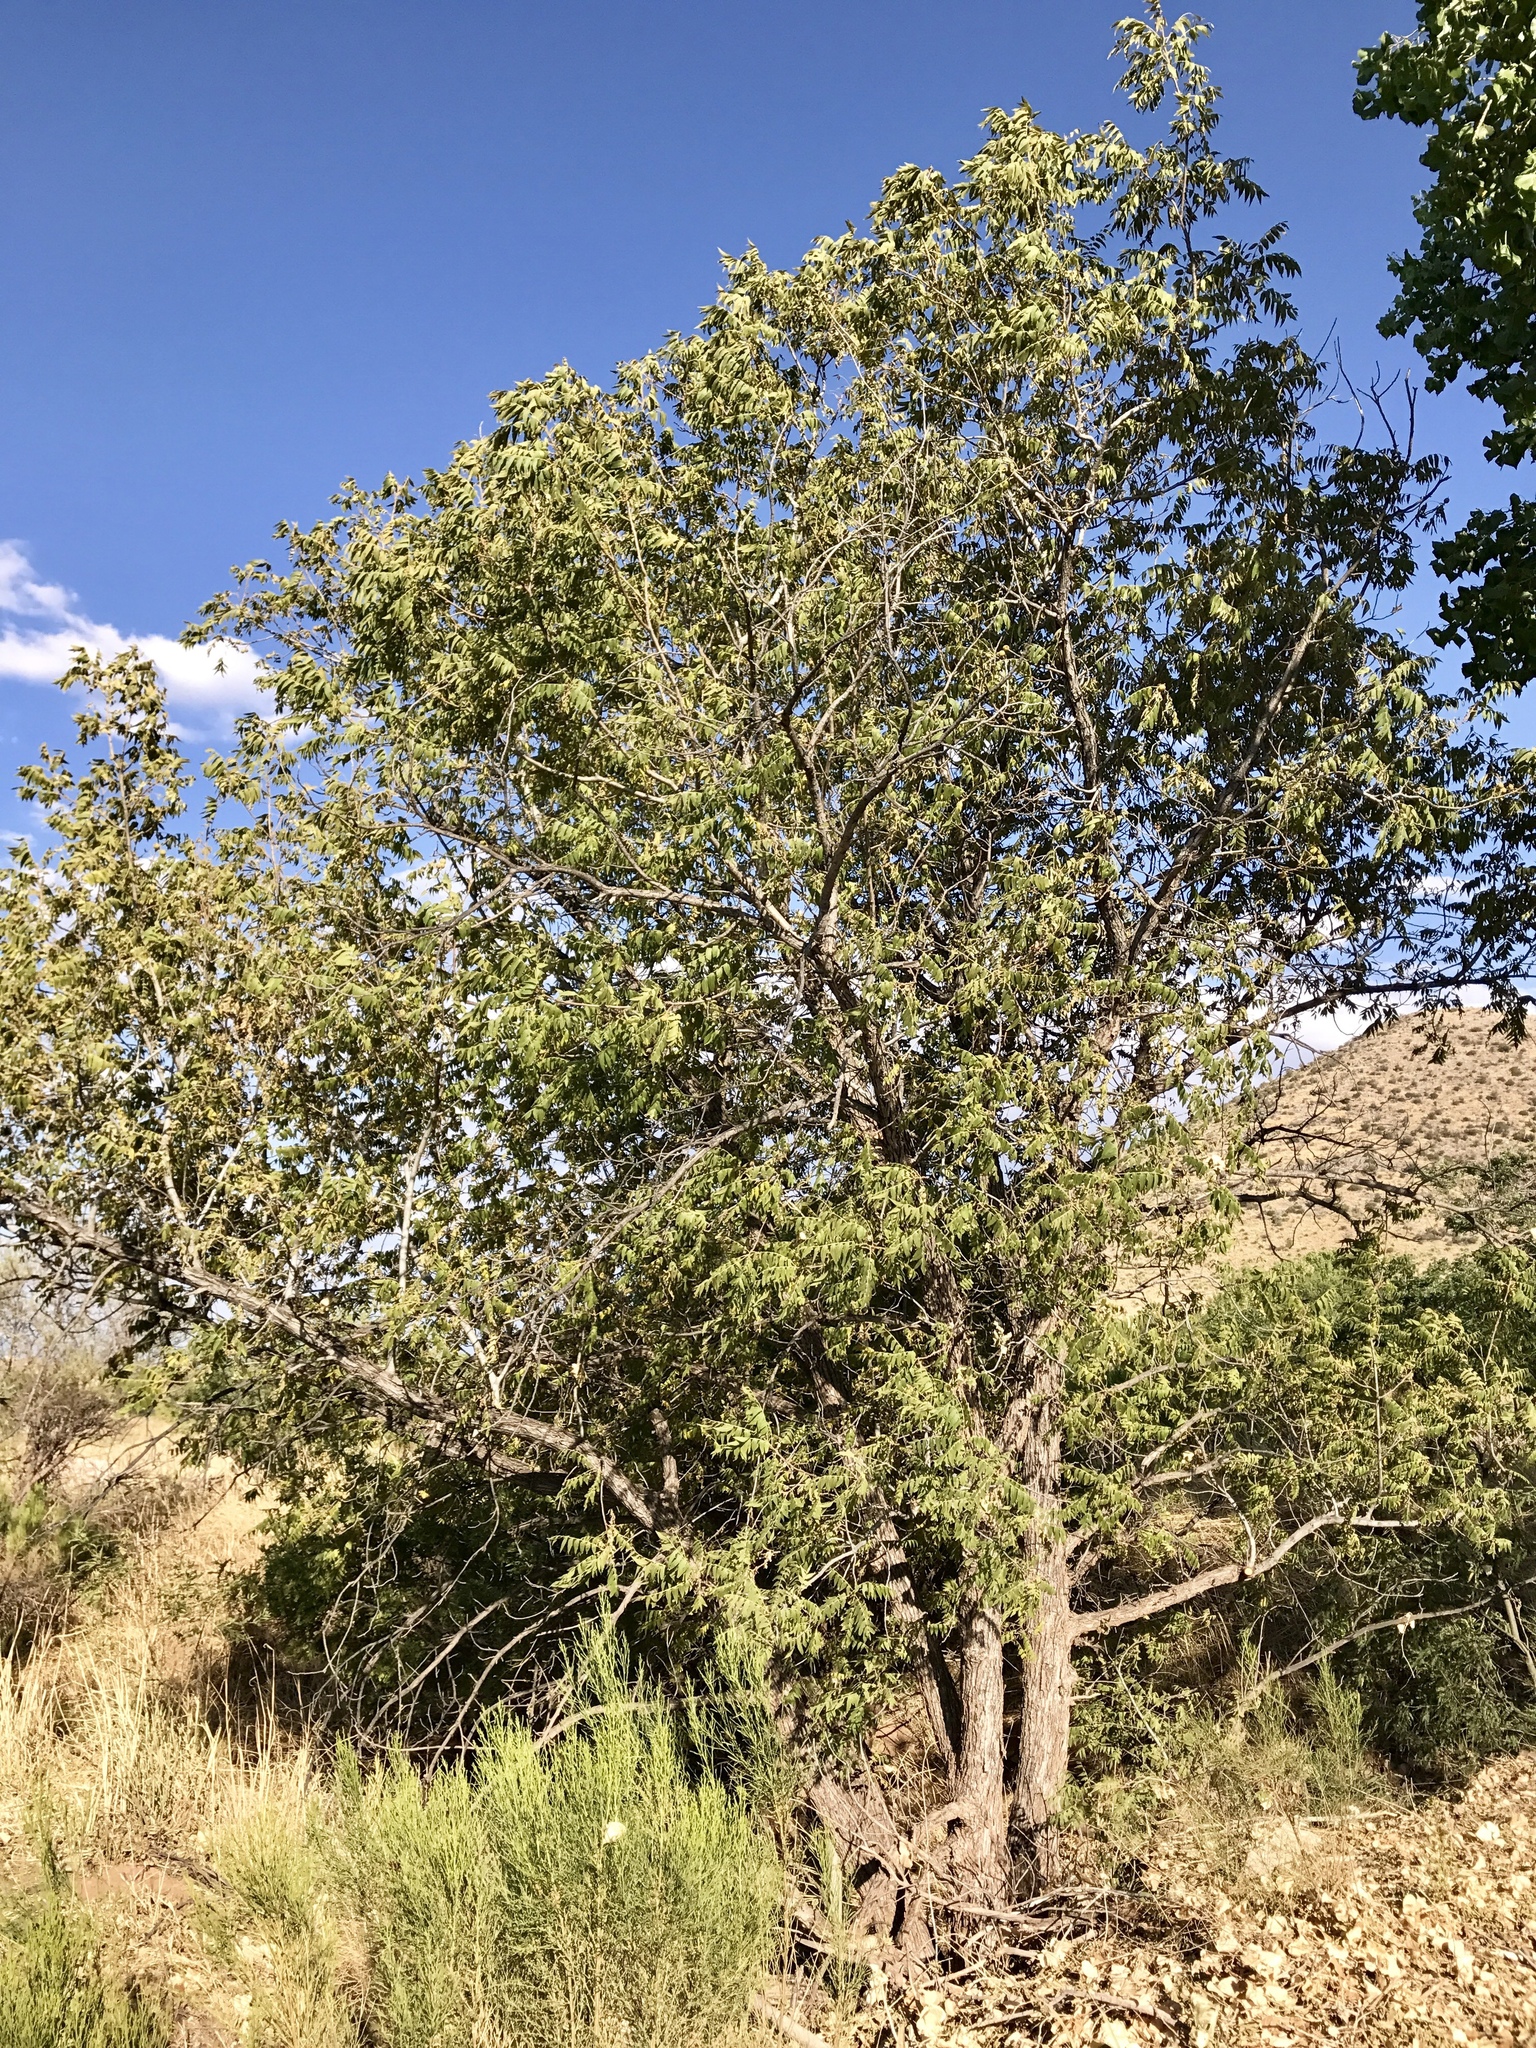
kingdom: Plantae
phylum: Tracheophyta
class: Magnoliopsida
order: Fagales
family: Juglandaceae
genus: Juglans
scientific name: Juglans major
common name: Arizona walnut
